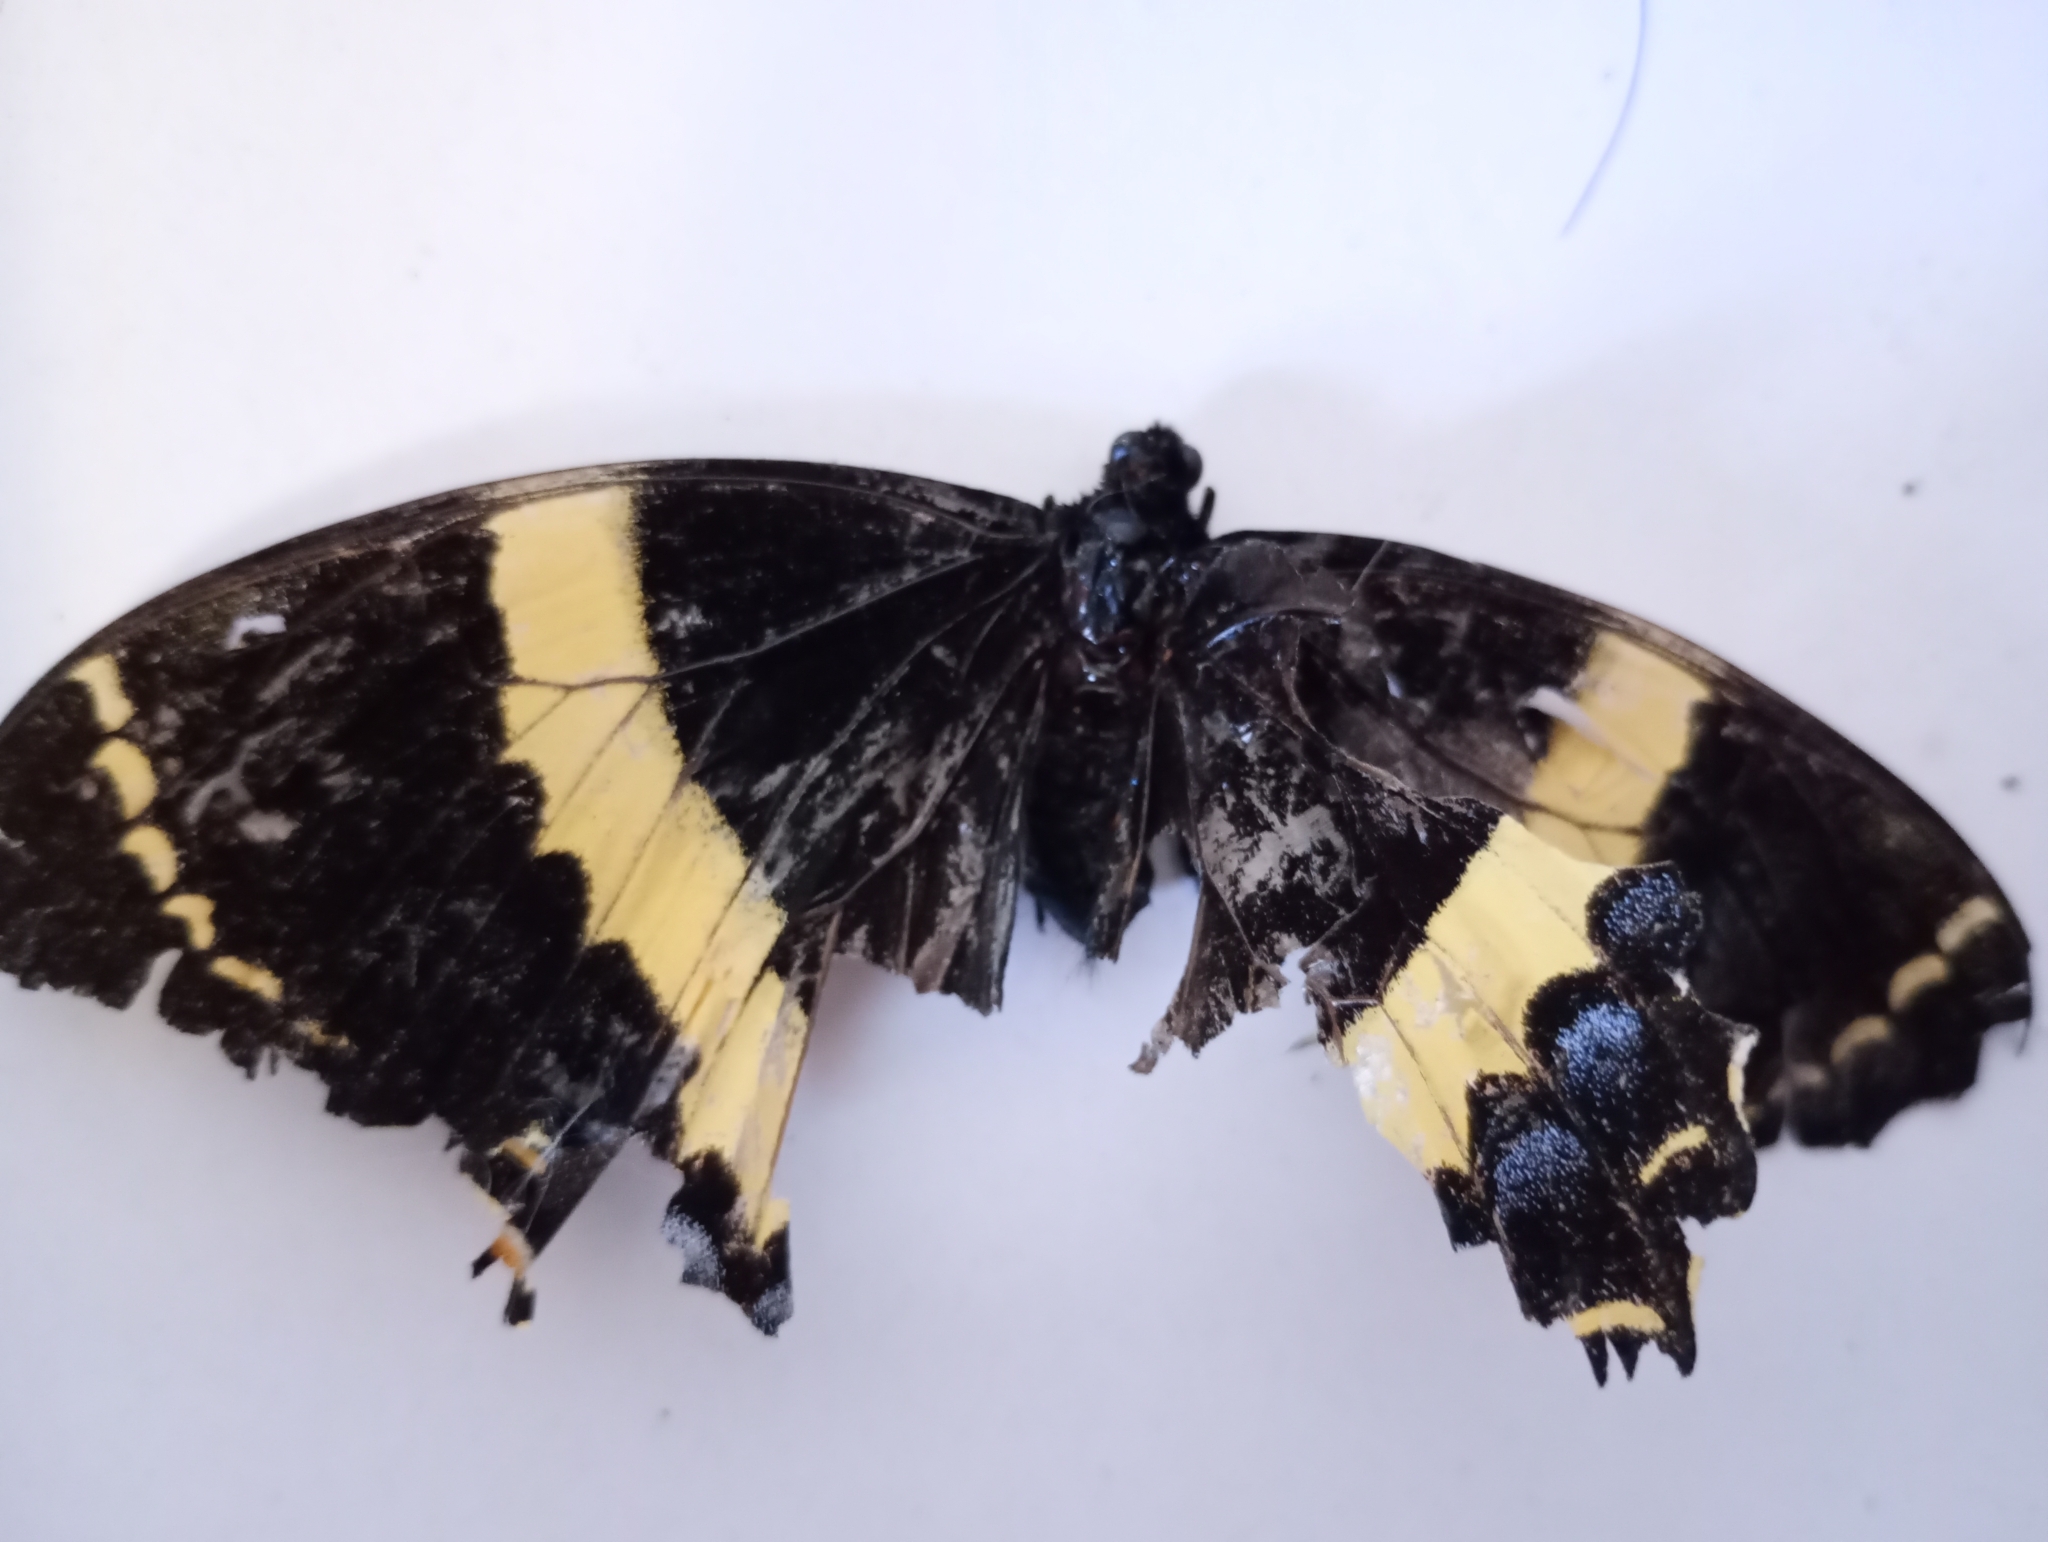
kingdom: Animalia
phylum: Arthropoda
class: Insecta
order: Lepidoptera
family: Papilionidae
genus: Papilio
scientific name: Papilio garamas
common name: Magnificent swallowtail
